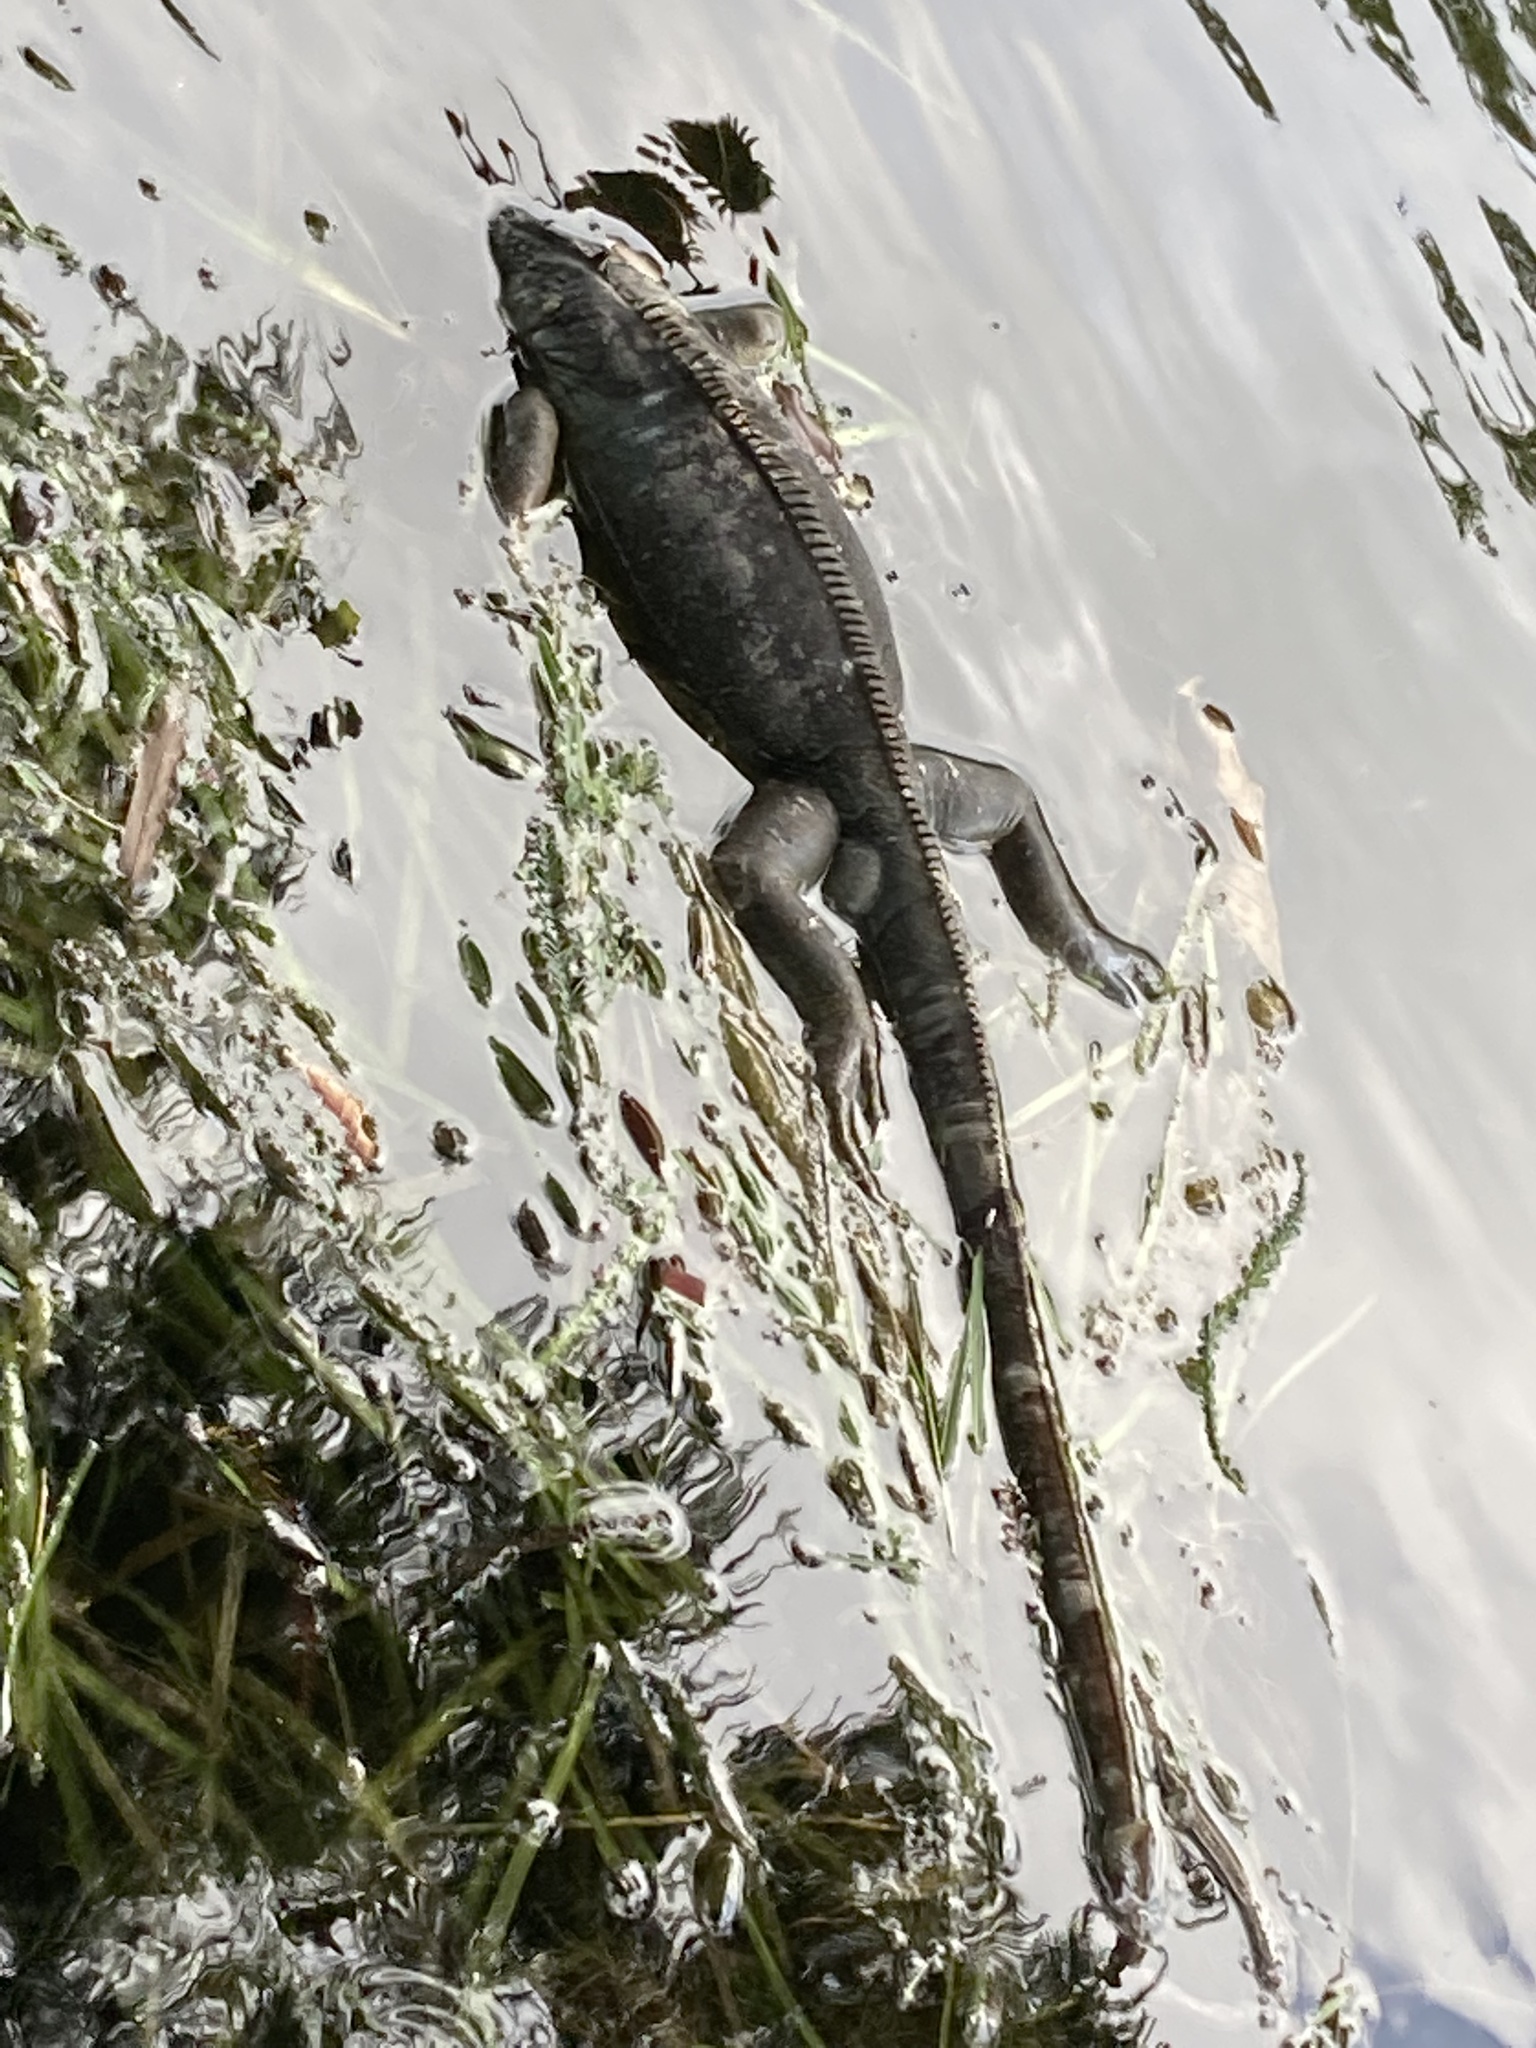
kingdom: Animalia
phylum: Chordata
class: Squamata
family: Iguanidae
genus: Iguana
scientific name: Iguana iguana
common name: Green iguana
